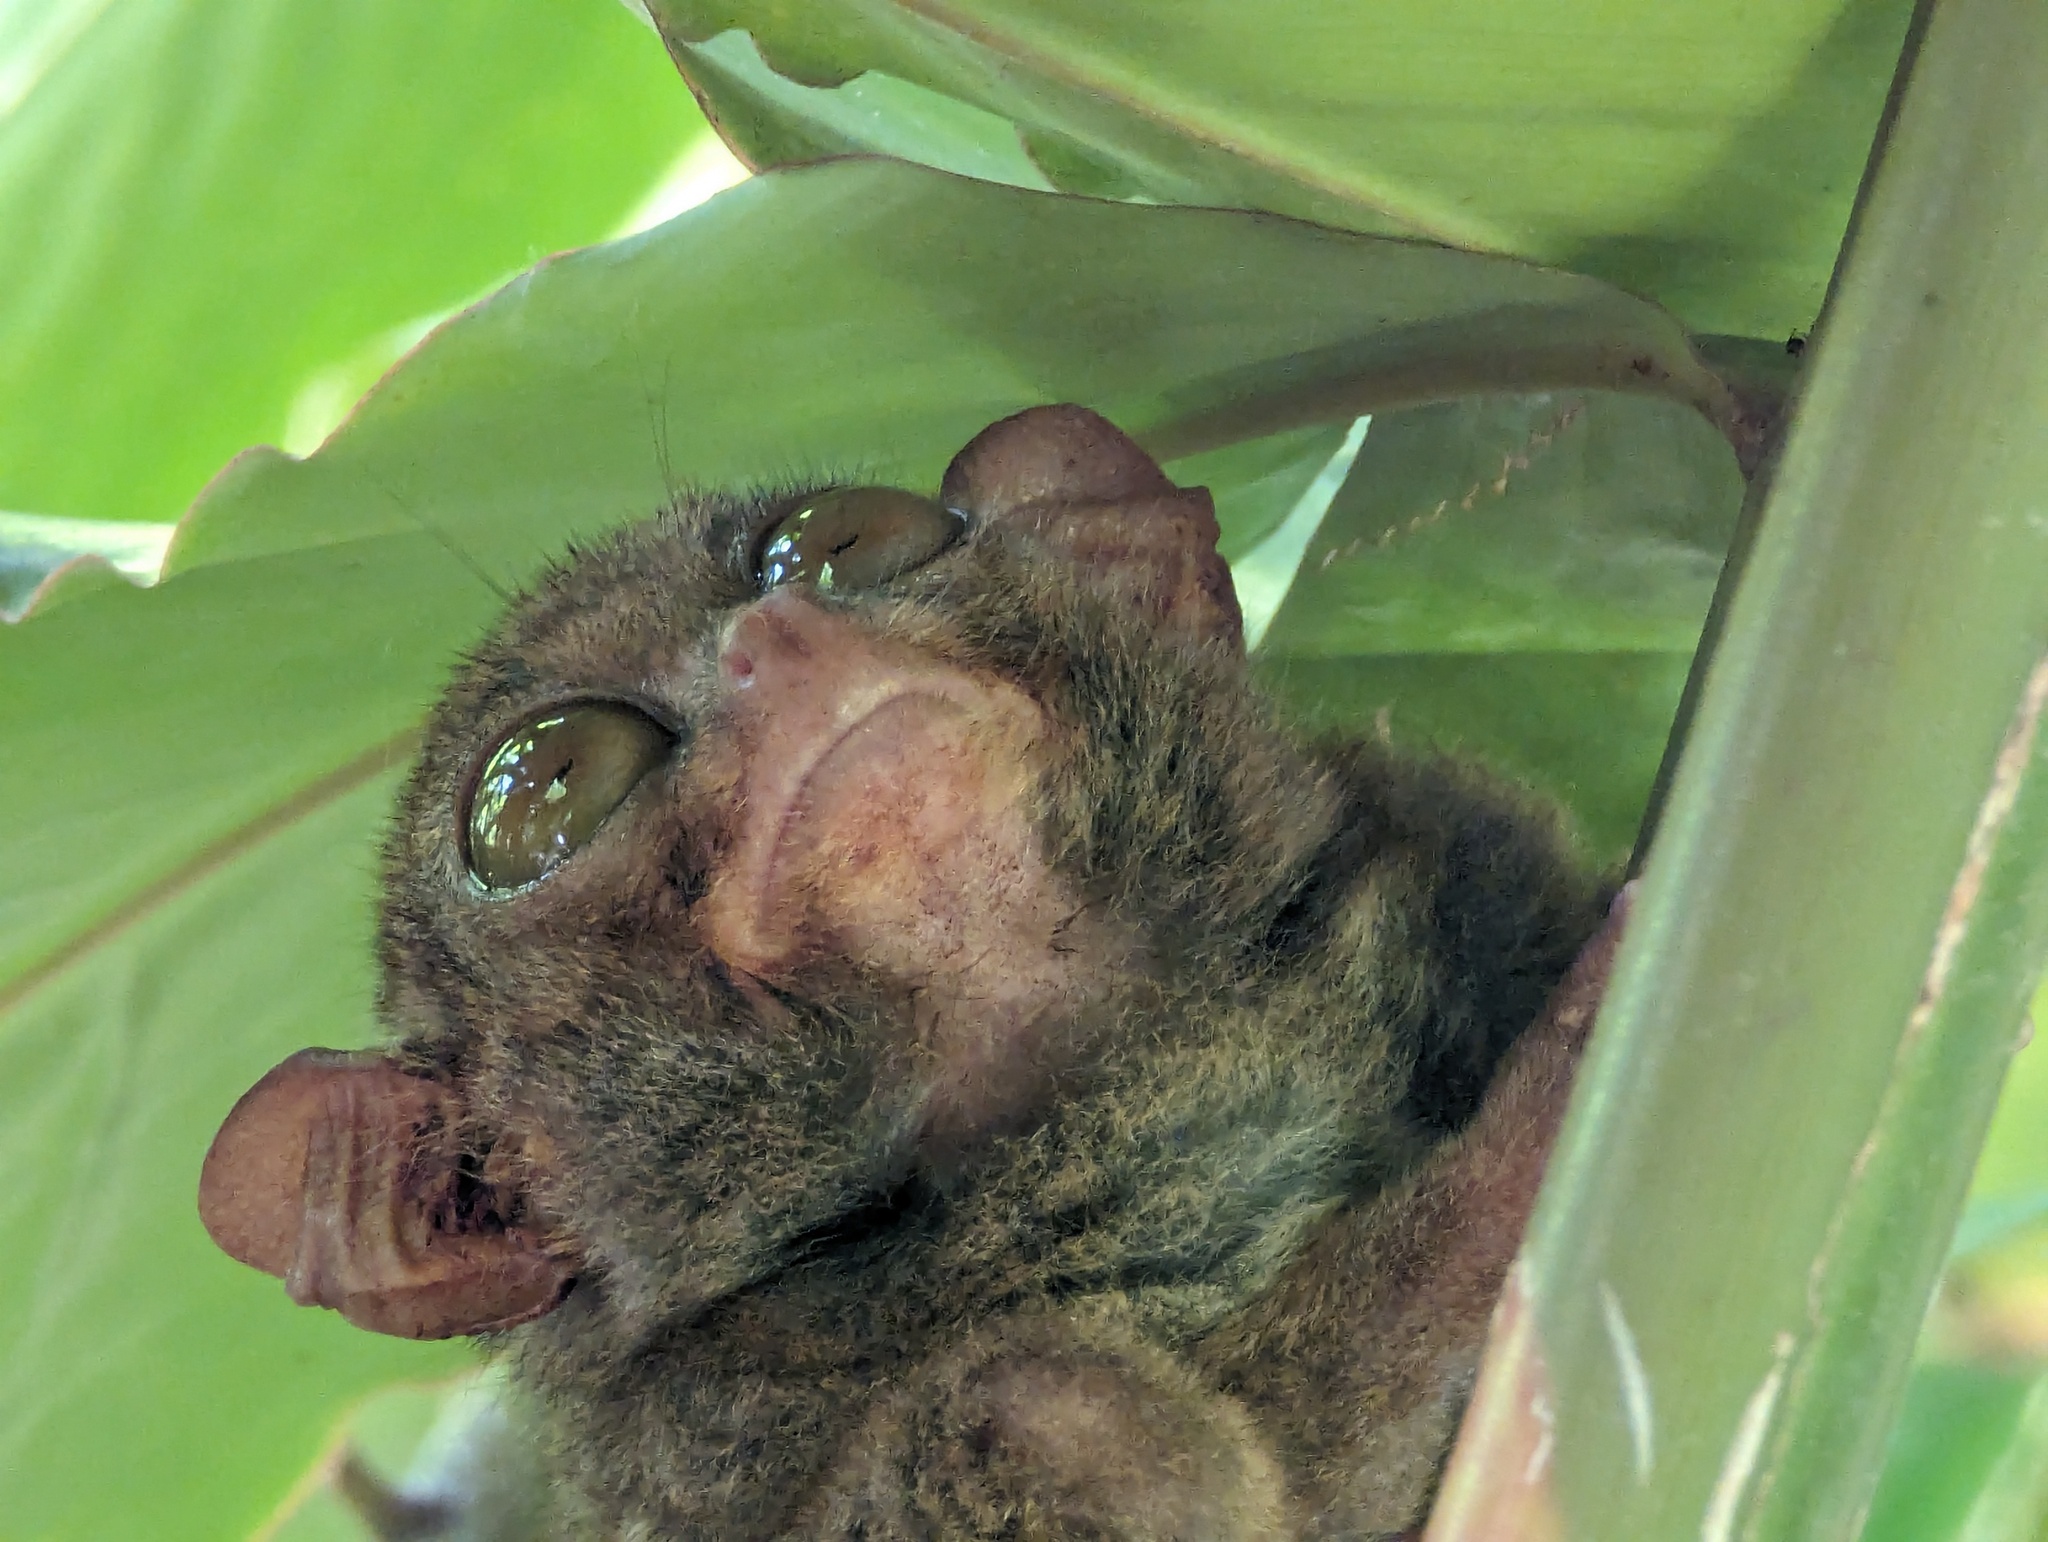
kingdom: Animalia
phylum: Chordata
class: Mammalia
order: Primates
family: Tarsiidae
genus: Carlito
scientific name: Carlito syrichta
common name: Philippine tarsier
